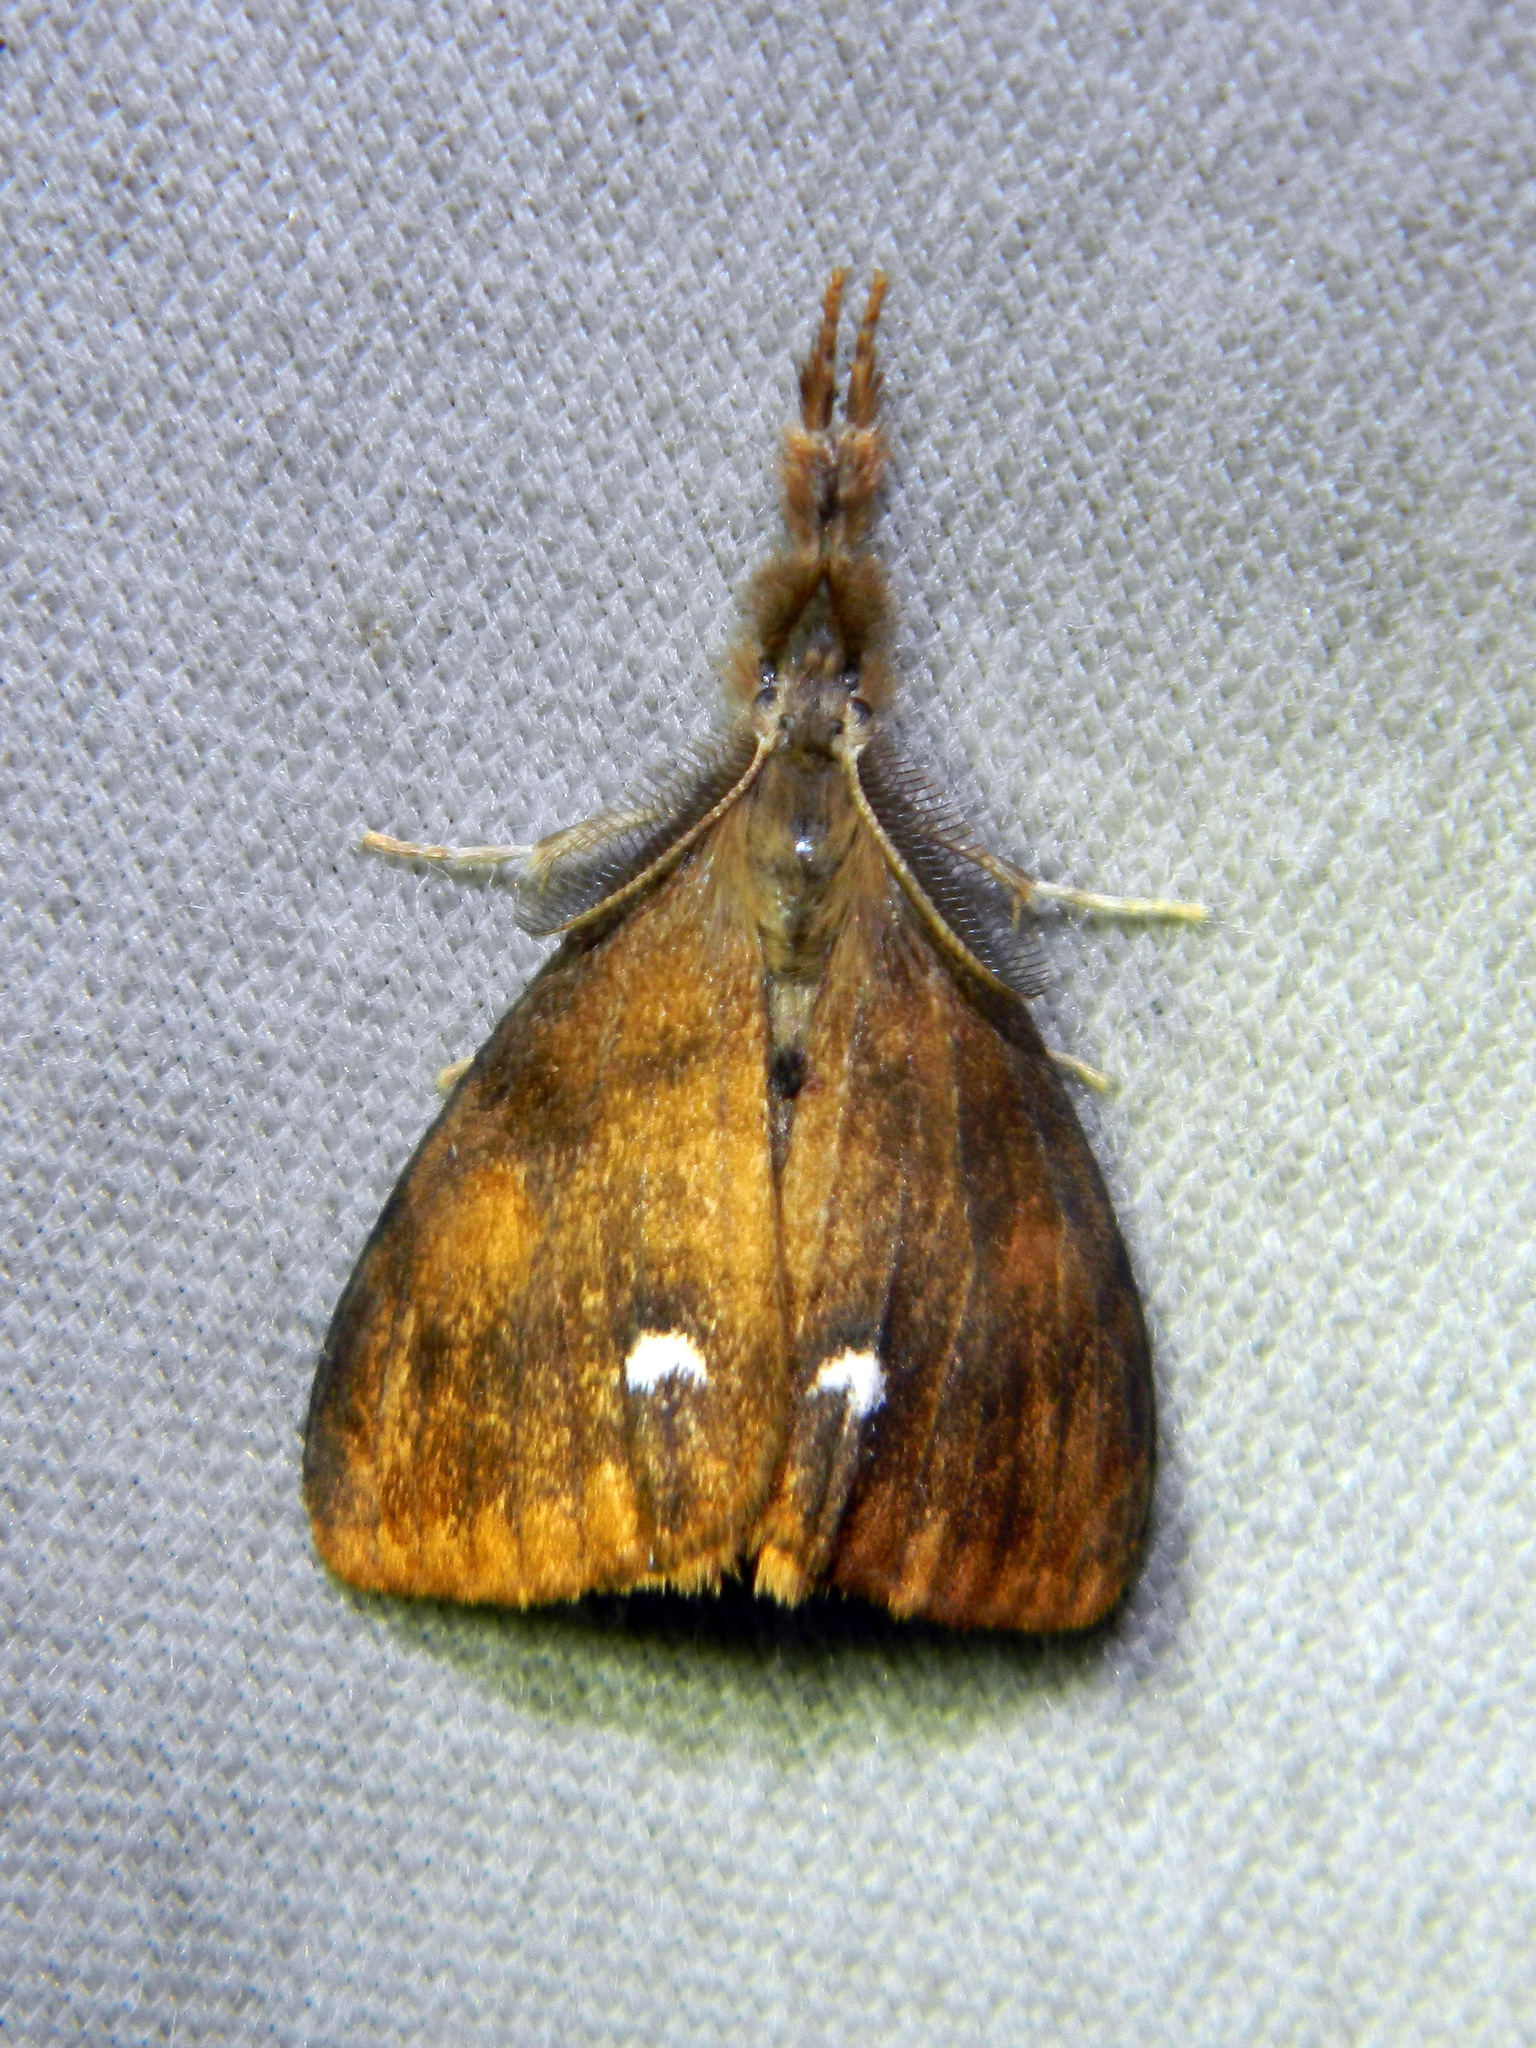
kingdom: Animalia
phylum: Arthropoda
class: Insecta
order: Lepidoptera
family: Erebidae
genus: Orgyia
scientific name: Orgyia antiqua
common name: Vapourer
